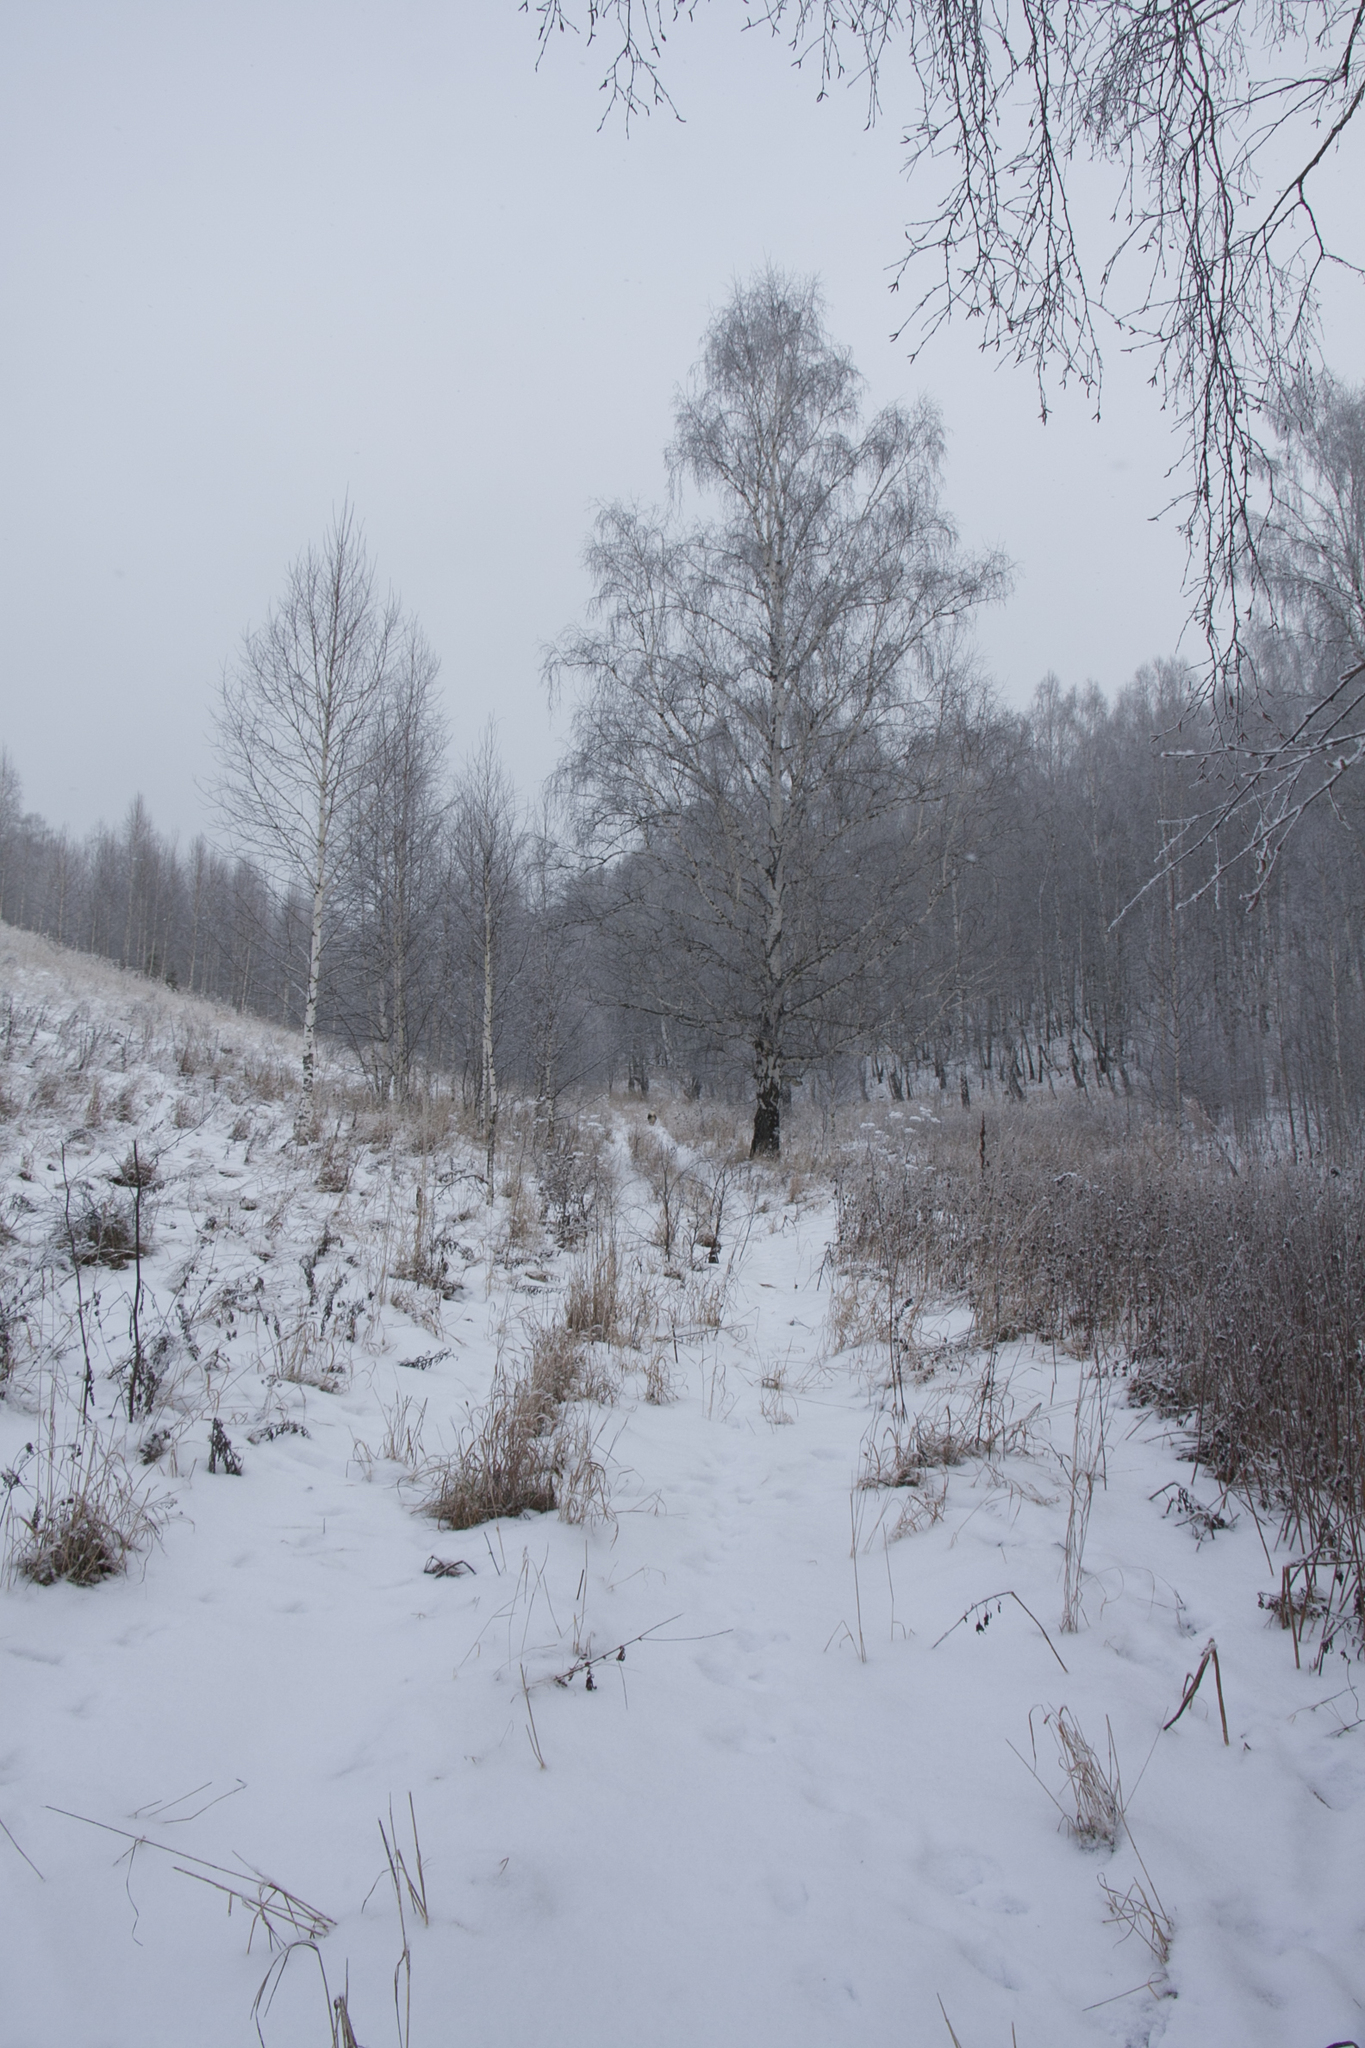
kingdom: Plantae
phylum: Tracheophyta
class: Magnoliopsida
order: Fagales
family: Betulaceae
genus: Betula
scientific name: Betula pendula
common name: Silver birch
